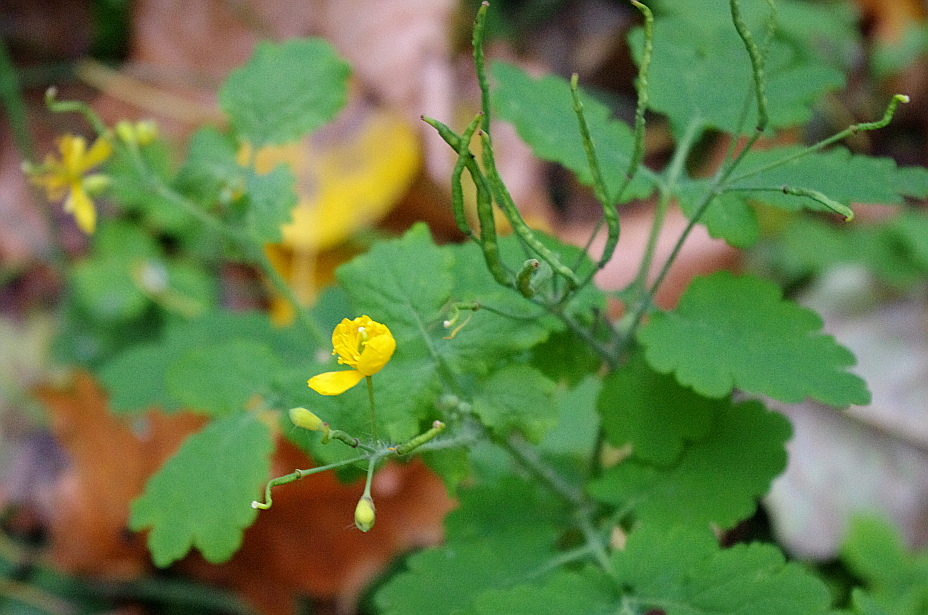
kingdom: Plantae
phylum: Tracheophyta
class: Magnoliopsida
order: Ranunculales
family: Papaveraceae
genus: Chelidonium
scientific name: Chelidonium majus
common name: Greater celandine
